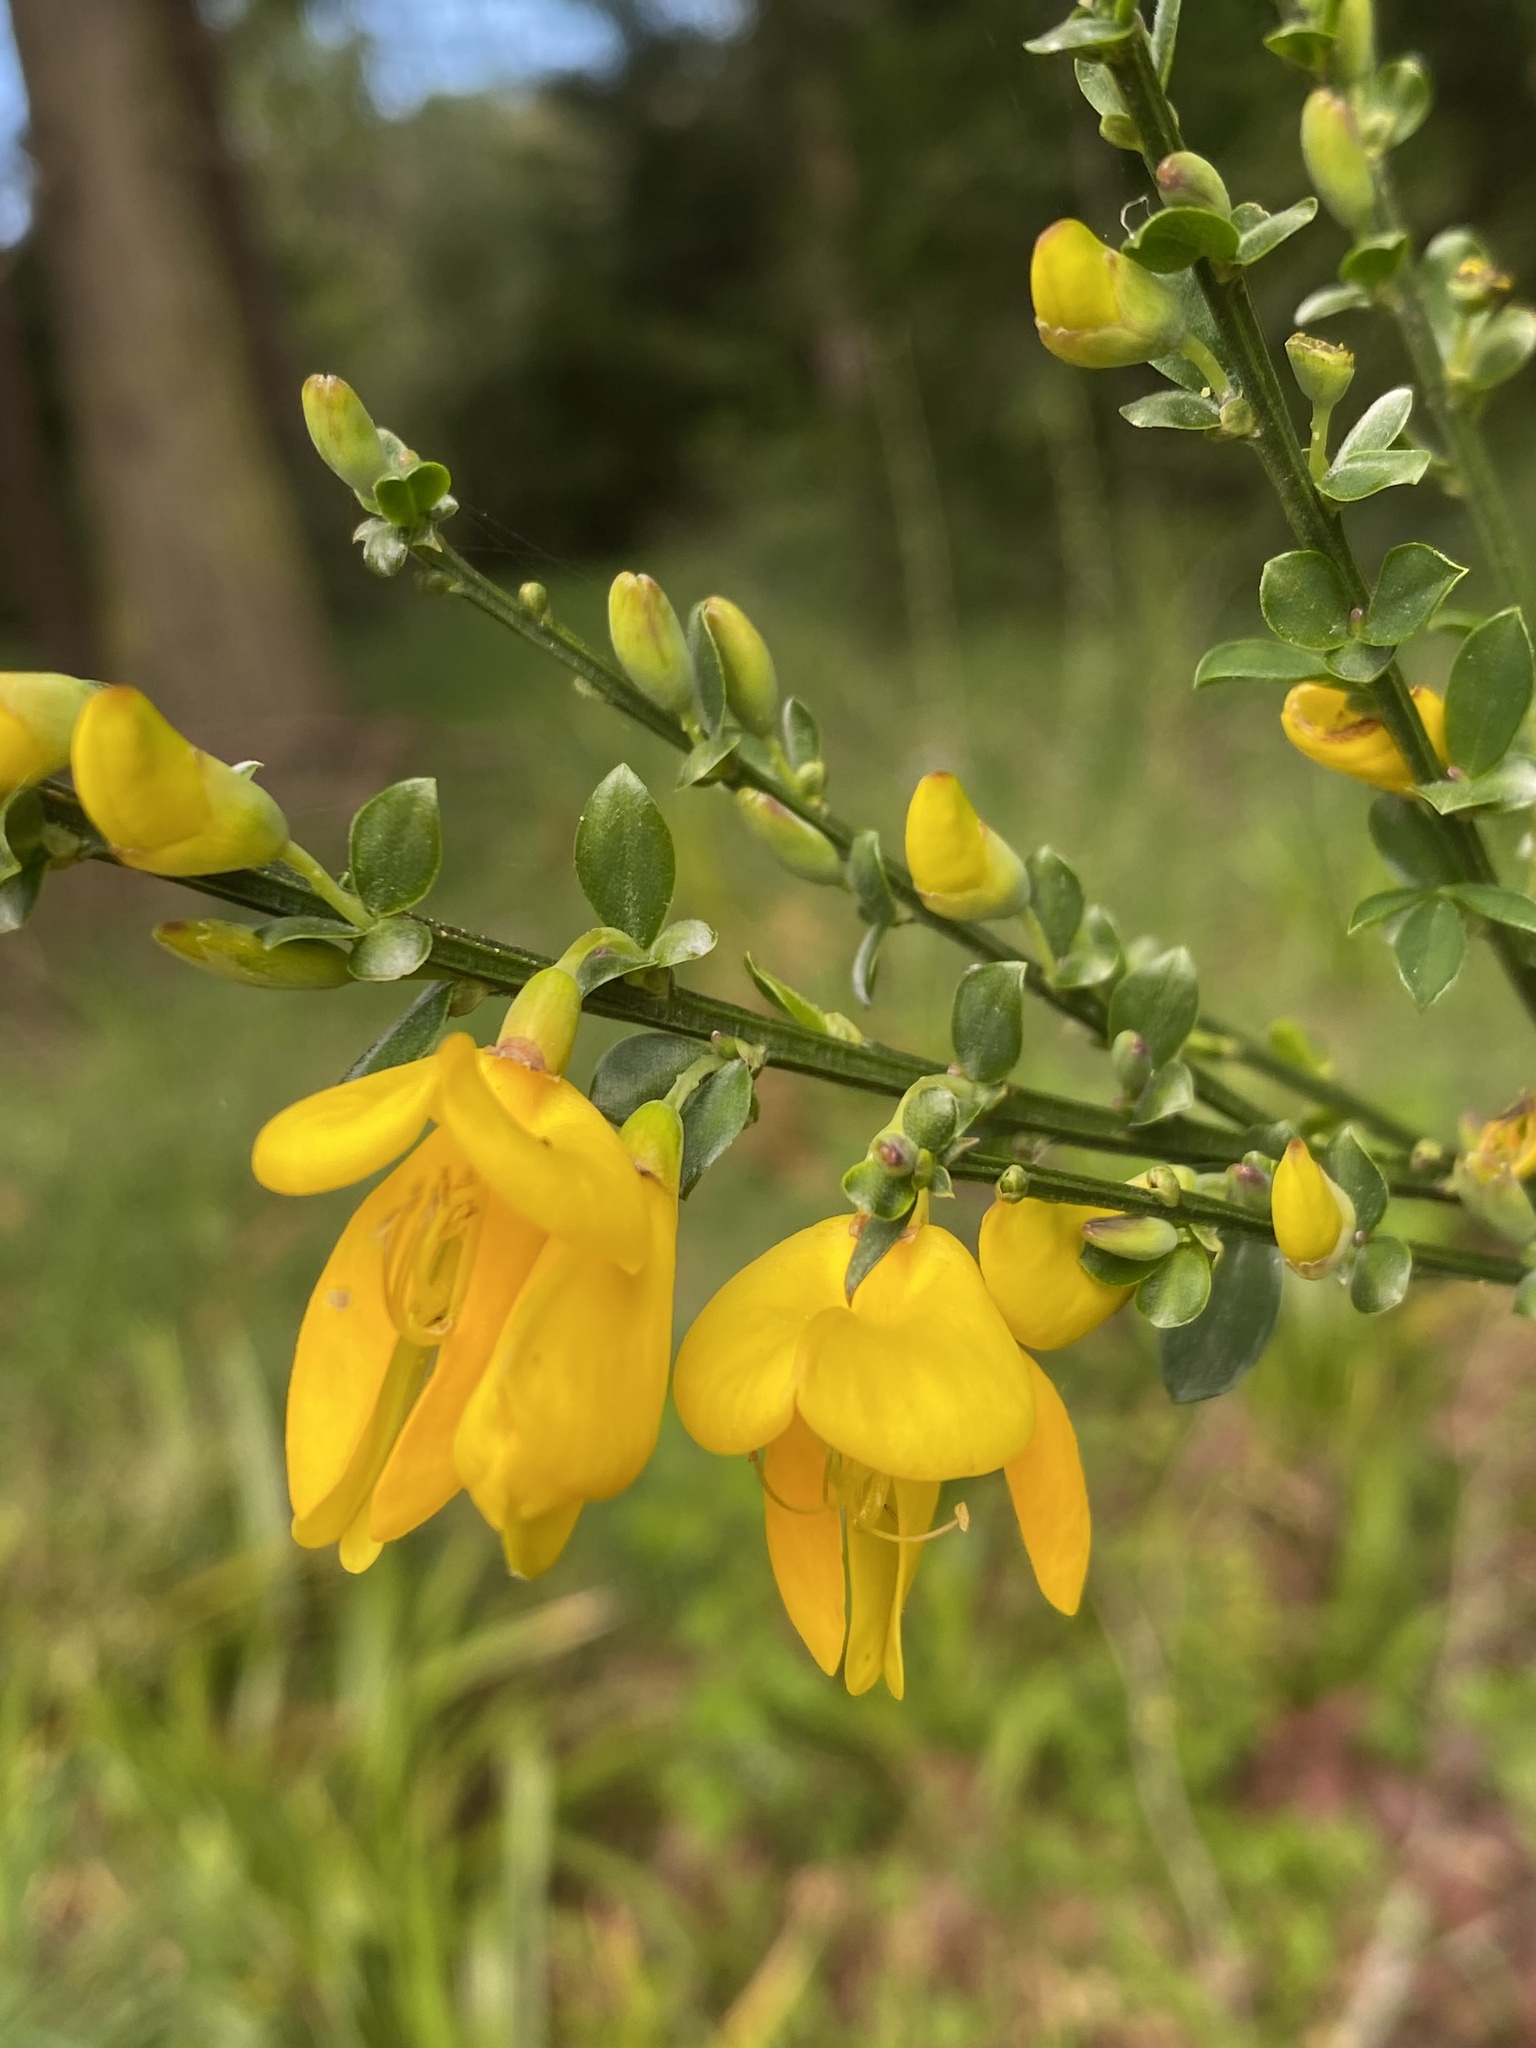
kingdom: Plantae
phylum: Tracheophyta
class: Magnoliopsida
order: Fabales
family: Fabaceae
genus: Cytisus
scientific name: Cytisus scoparius
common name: Scotch broom
